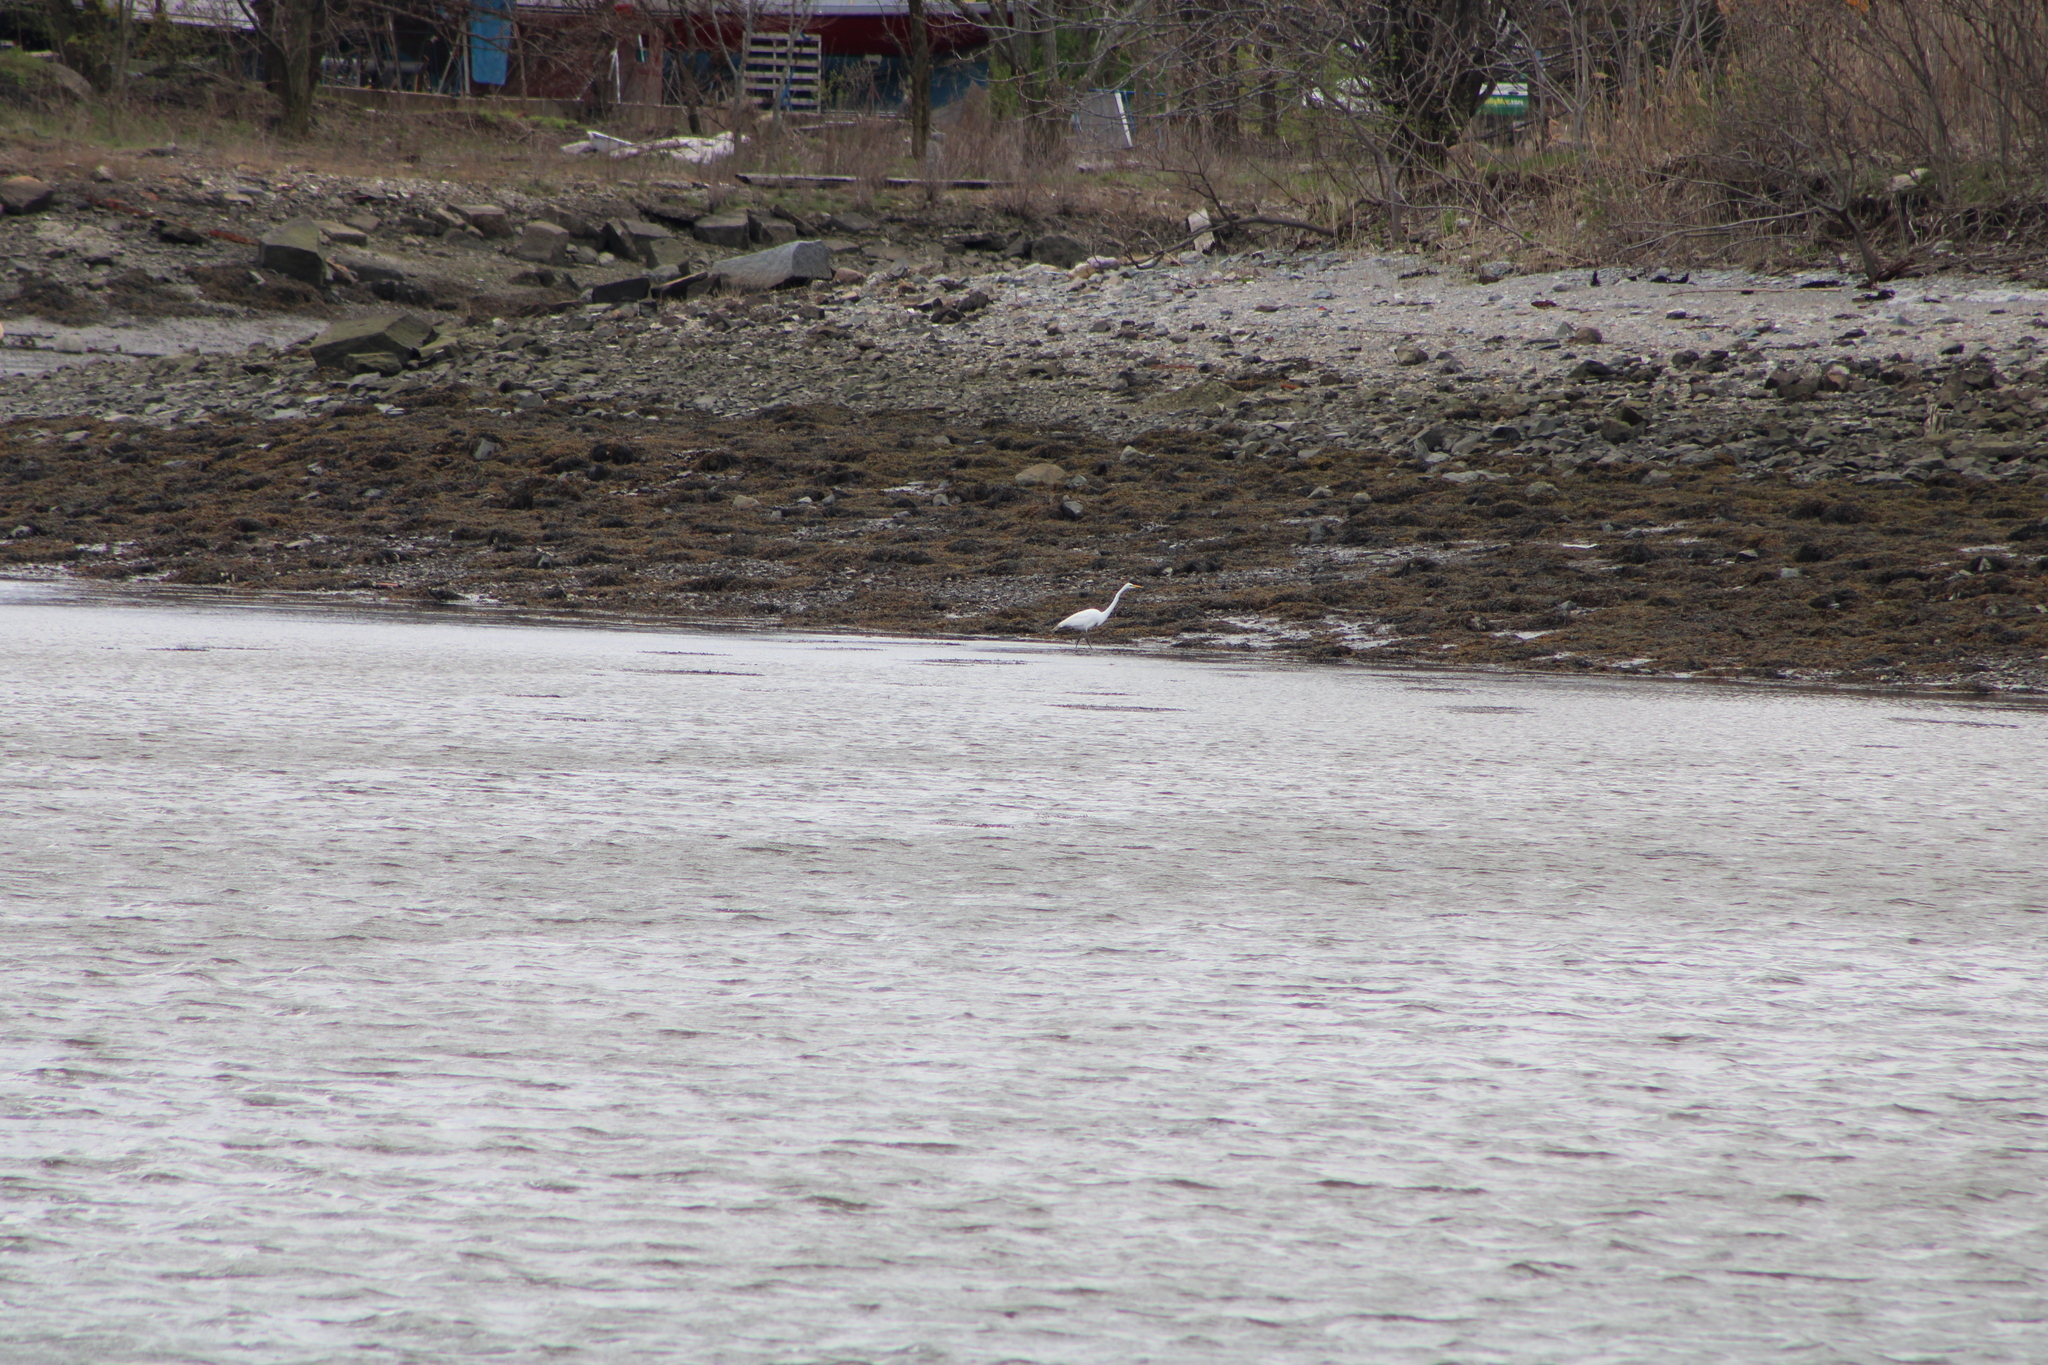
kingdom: Animalia
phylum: Chordata
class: Aves
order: Pelecaniformes
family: Ardeidae
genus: Ardea
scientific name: Ardea alba
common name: Great egret
